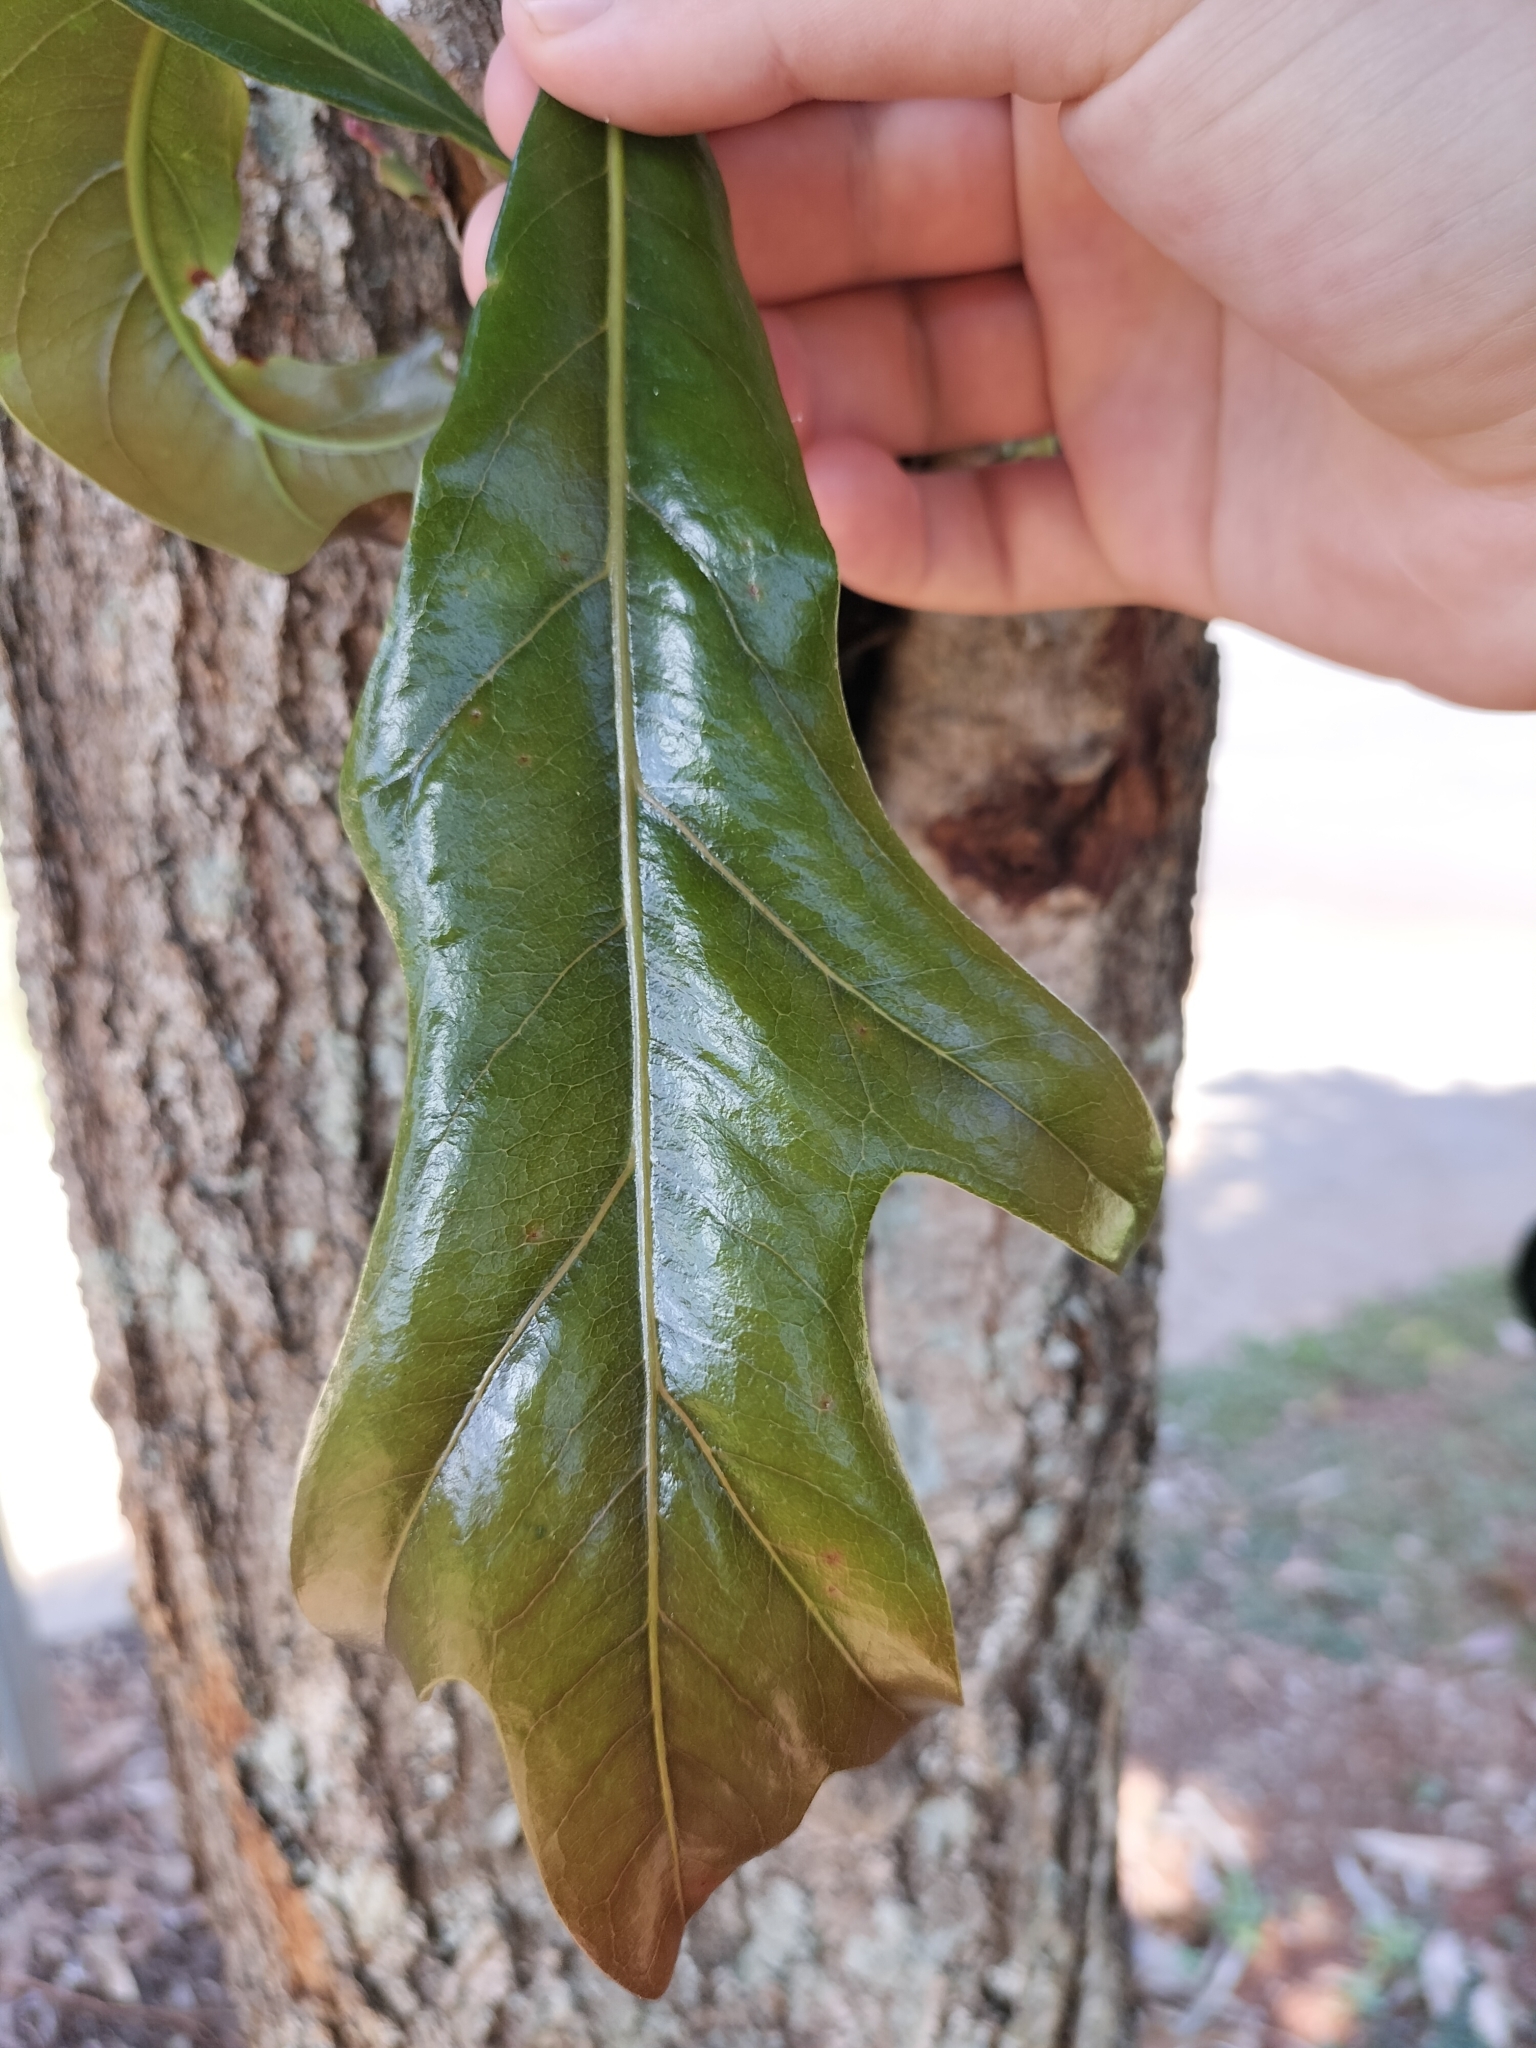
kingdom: Plantae
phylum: Tracheophyta
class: Magnoliopsida
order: Proteales
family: Proteaceae
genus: Stenocarpus
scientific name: Stenocarpus sinuatus
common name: Queensland fire-wheel-tree
